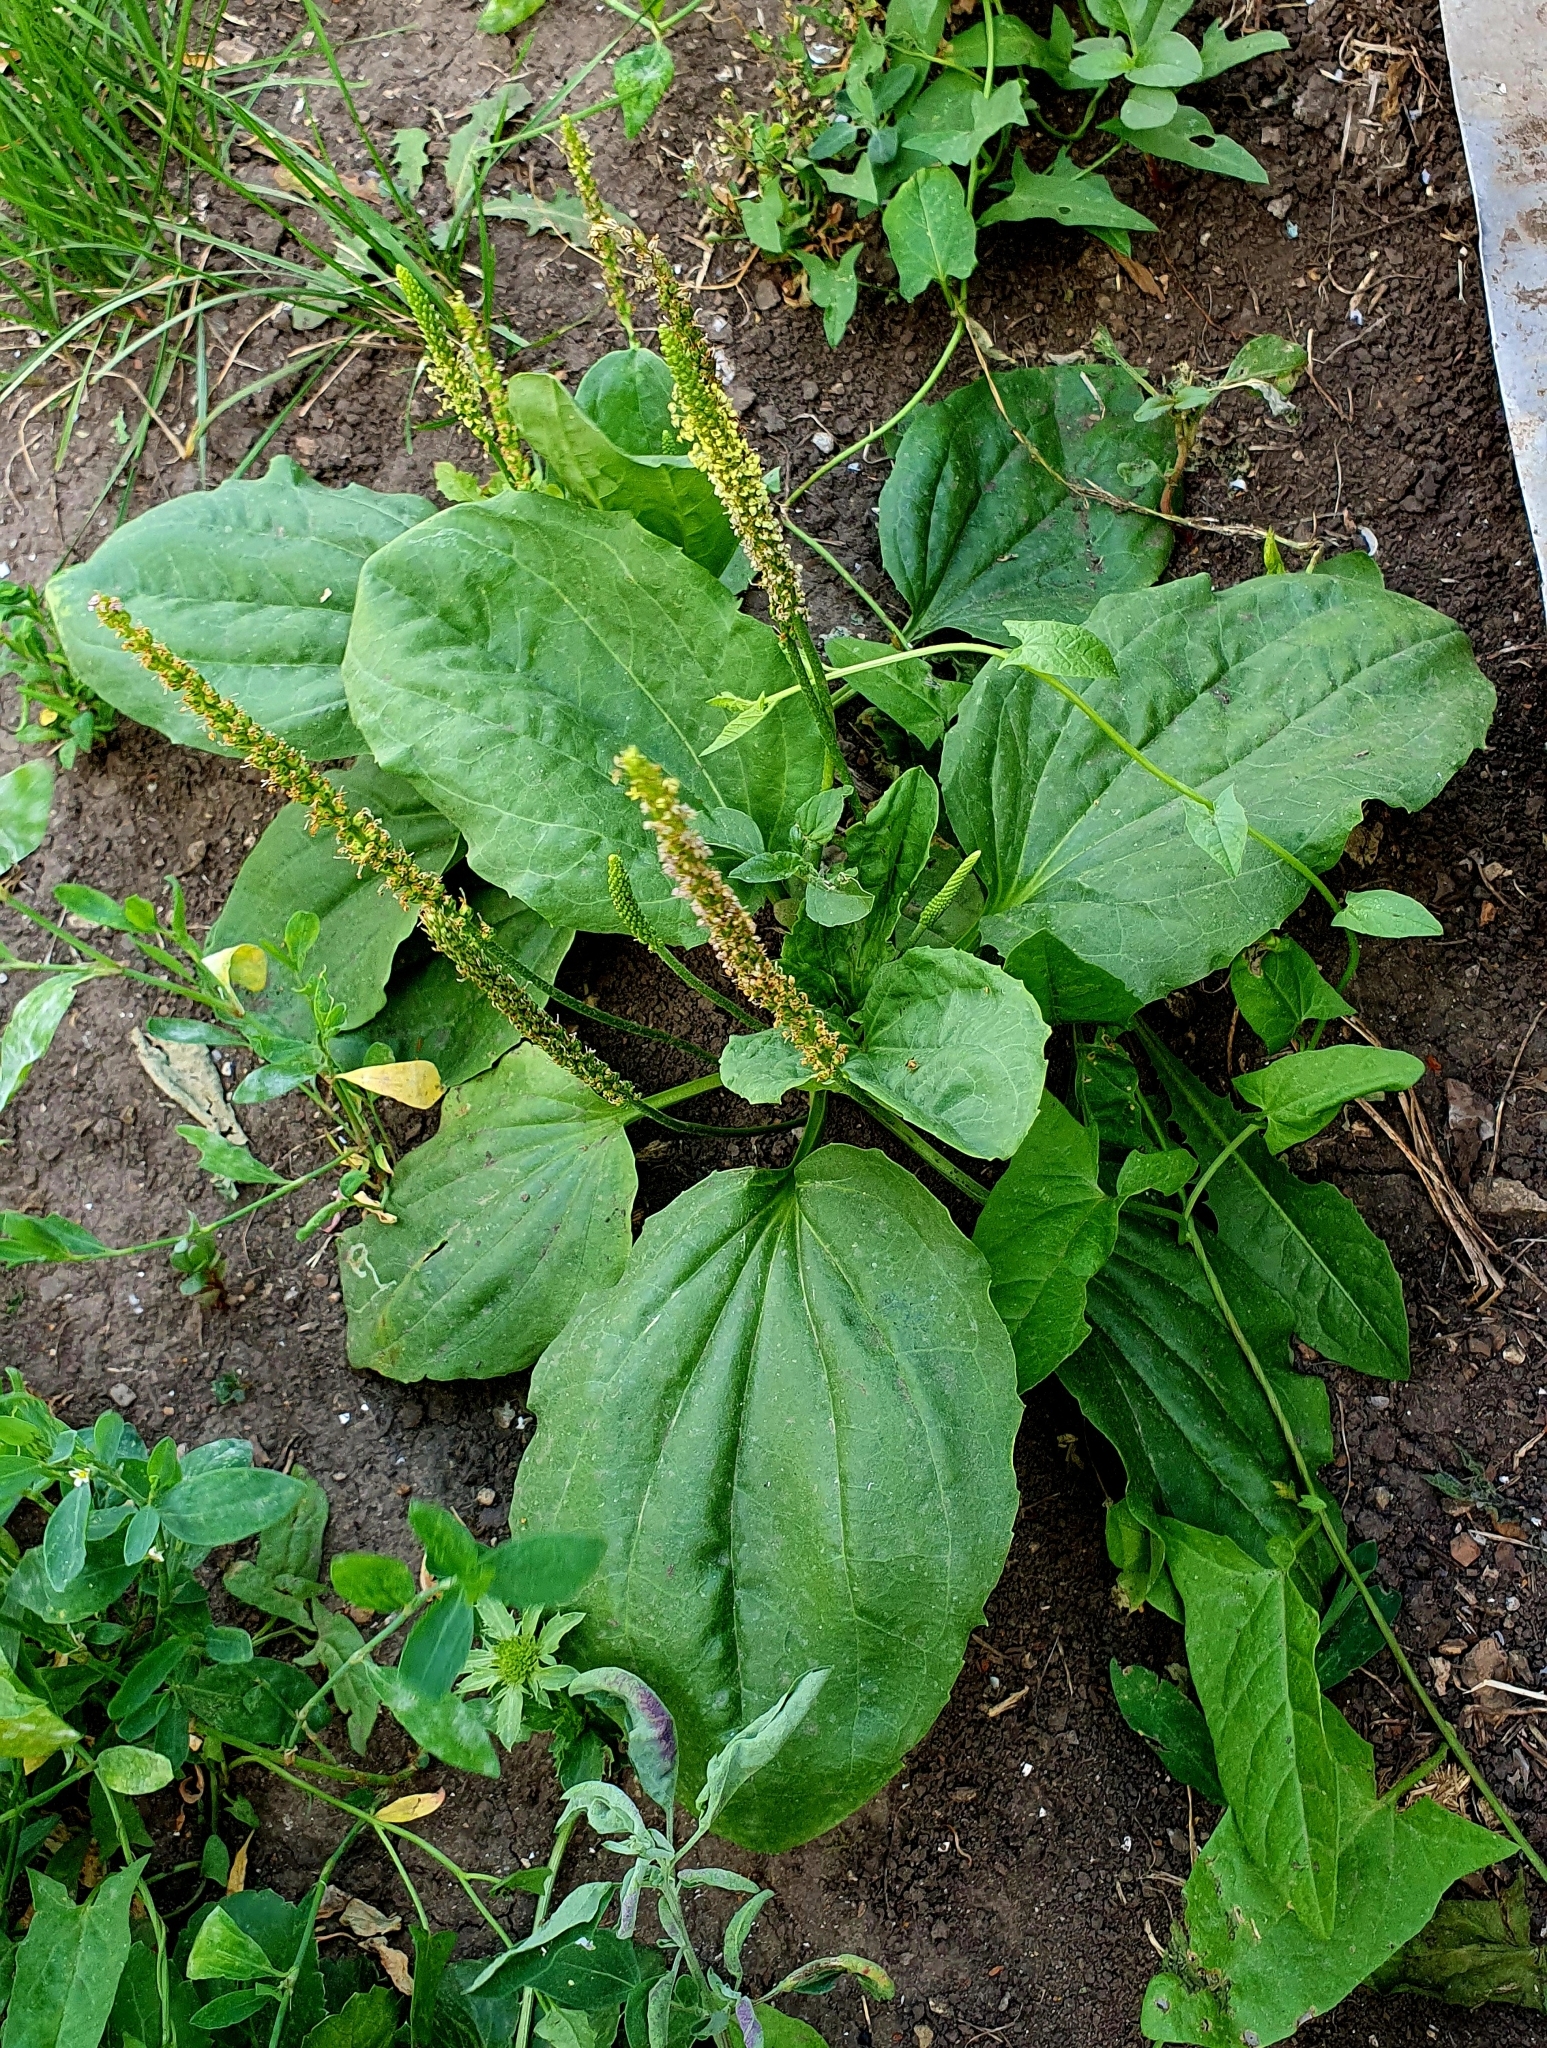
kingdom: Plantae
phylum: Tracheophyta
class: Magnoliopsida
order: Lamiales
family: Plantaginaceae
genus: Plantago
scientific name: Plantago major
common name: Common plantain
